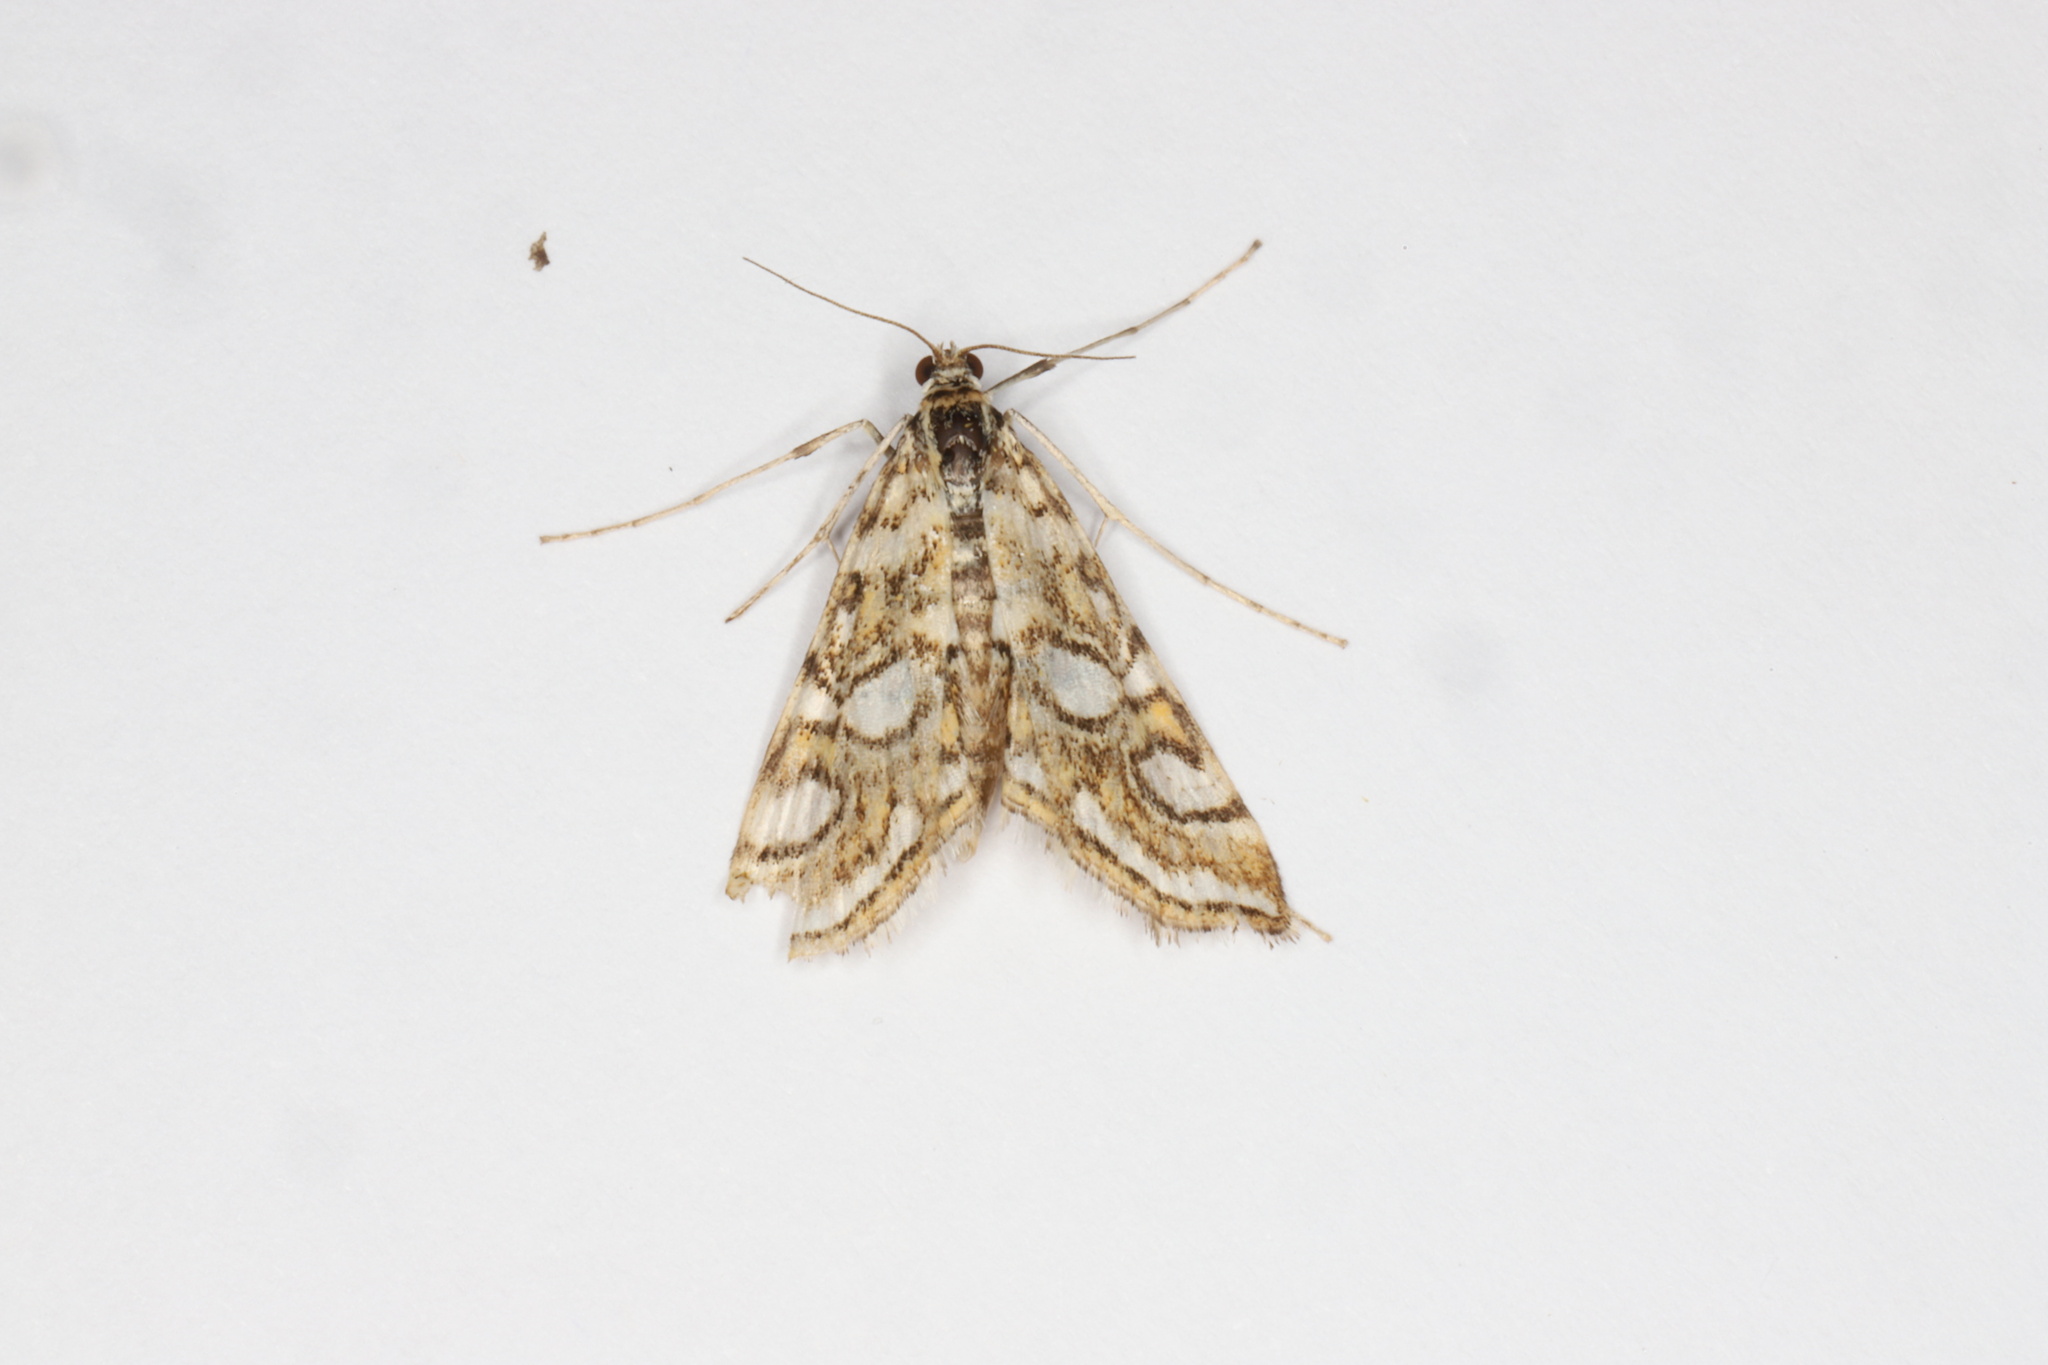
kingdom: Animalia
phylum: Arthropoda
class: Insecta
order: Lepidoptera
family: Crambidae
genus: Elophila
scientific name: Elophila ekthlipsis
